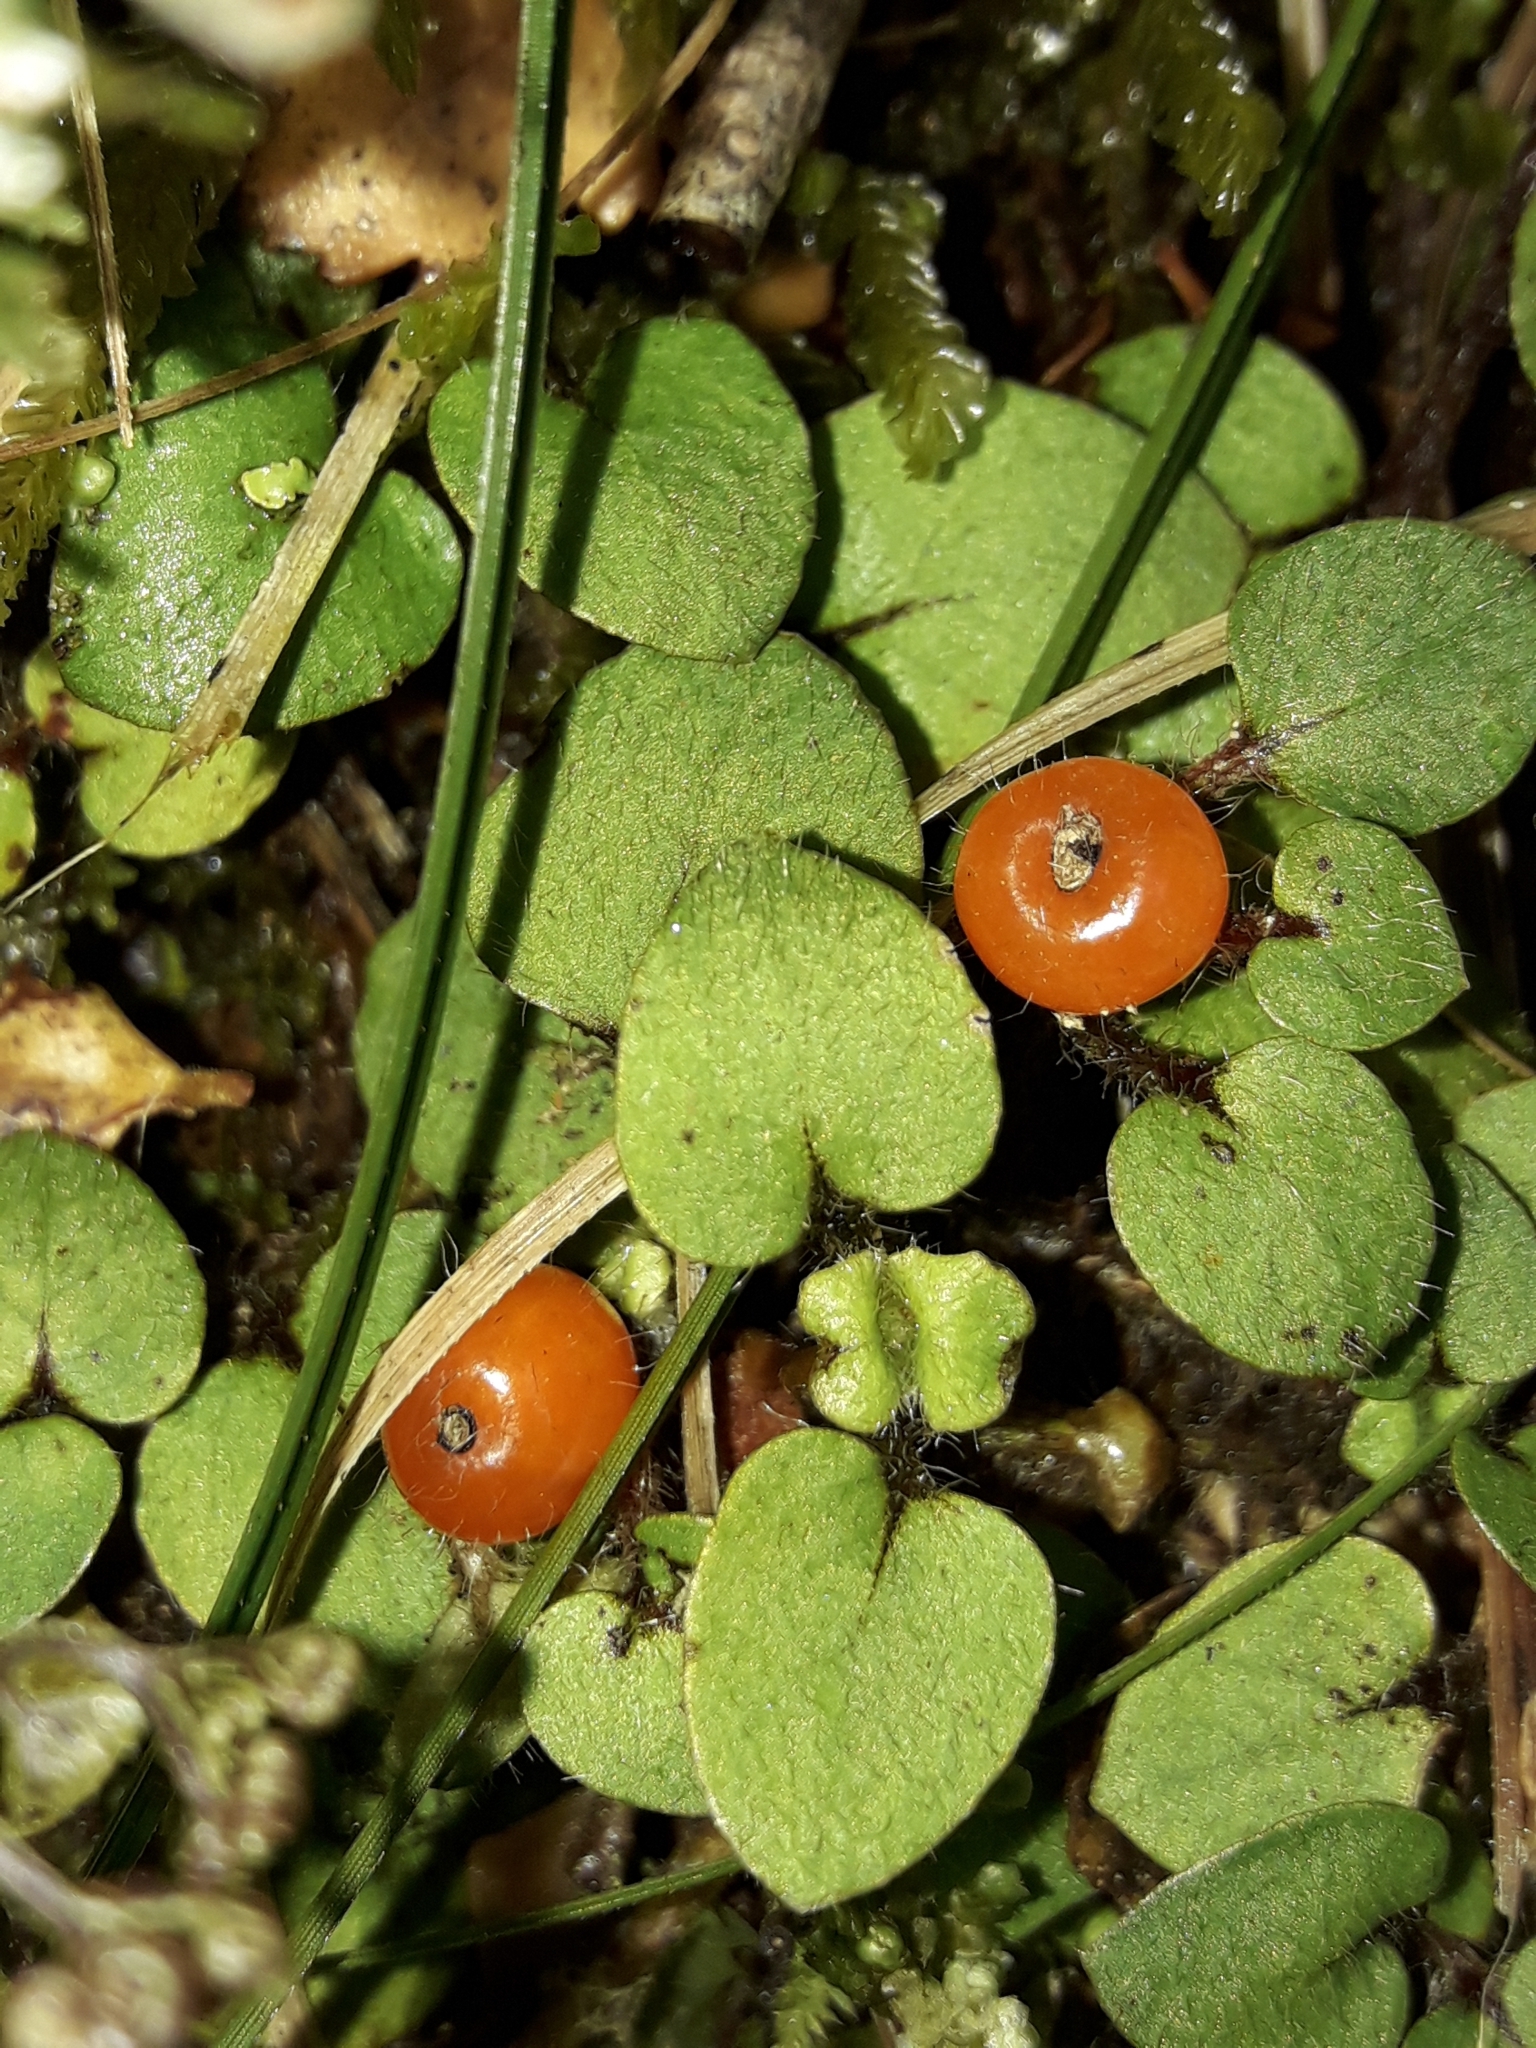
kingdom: Plantae
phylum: Tracheophyta
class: Magnoliopsida
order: Gentianales
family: Rubiaceae
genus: Nertera
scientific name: Nertera villosa
